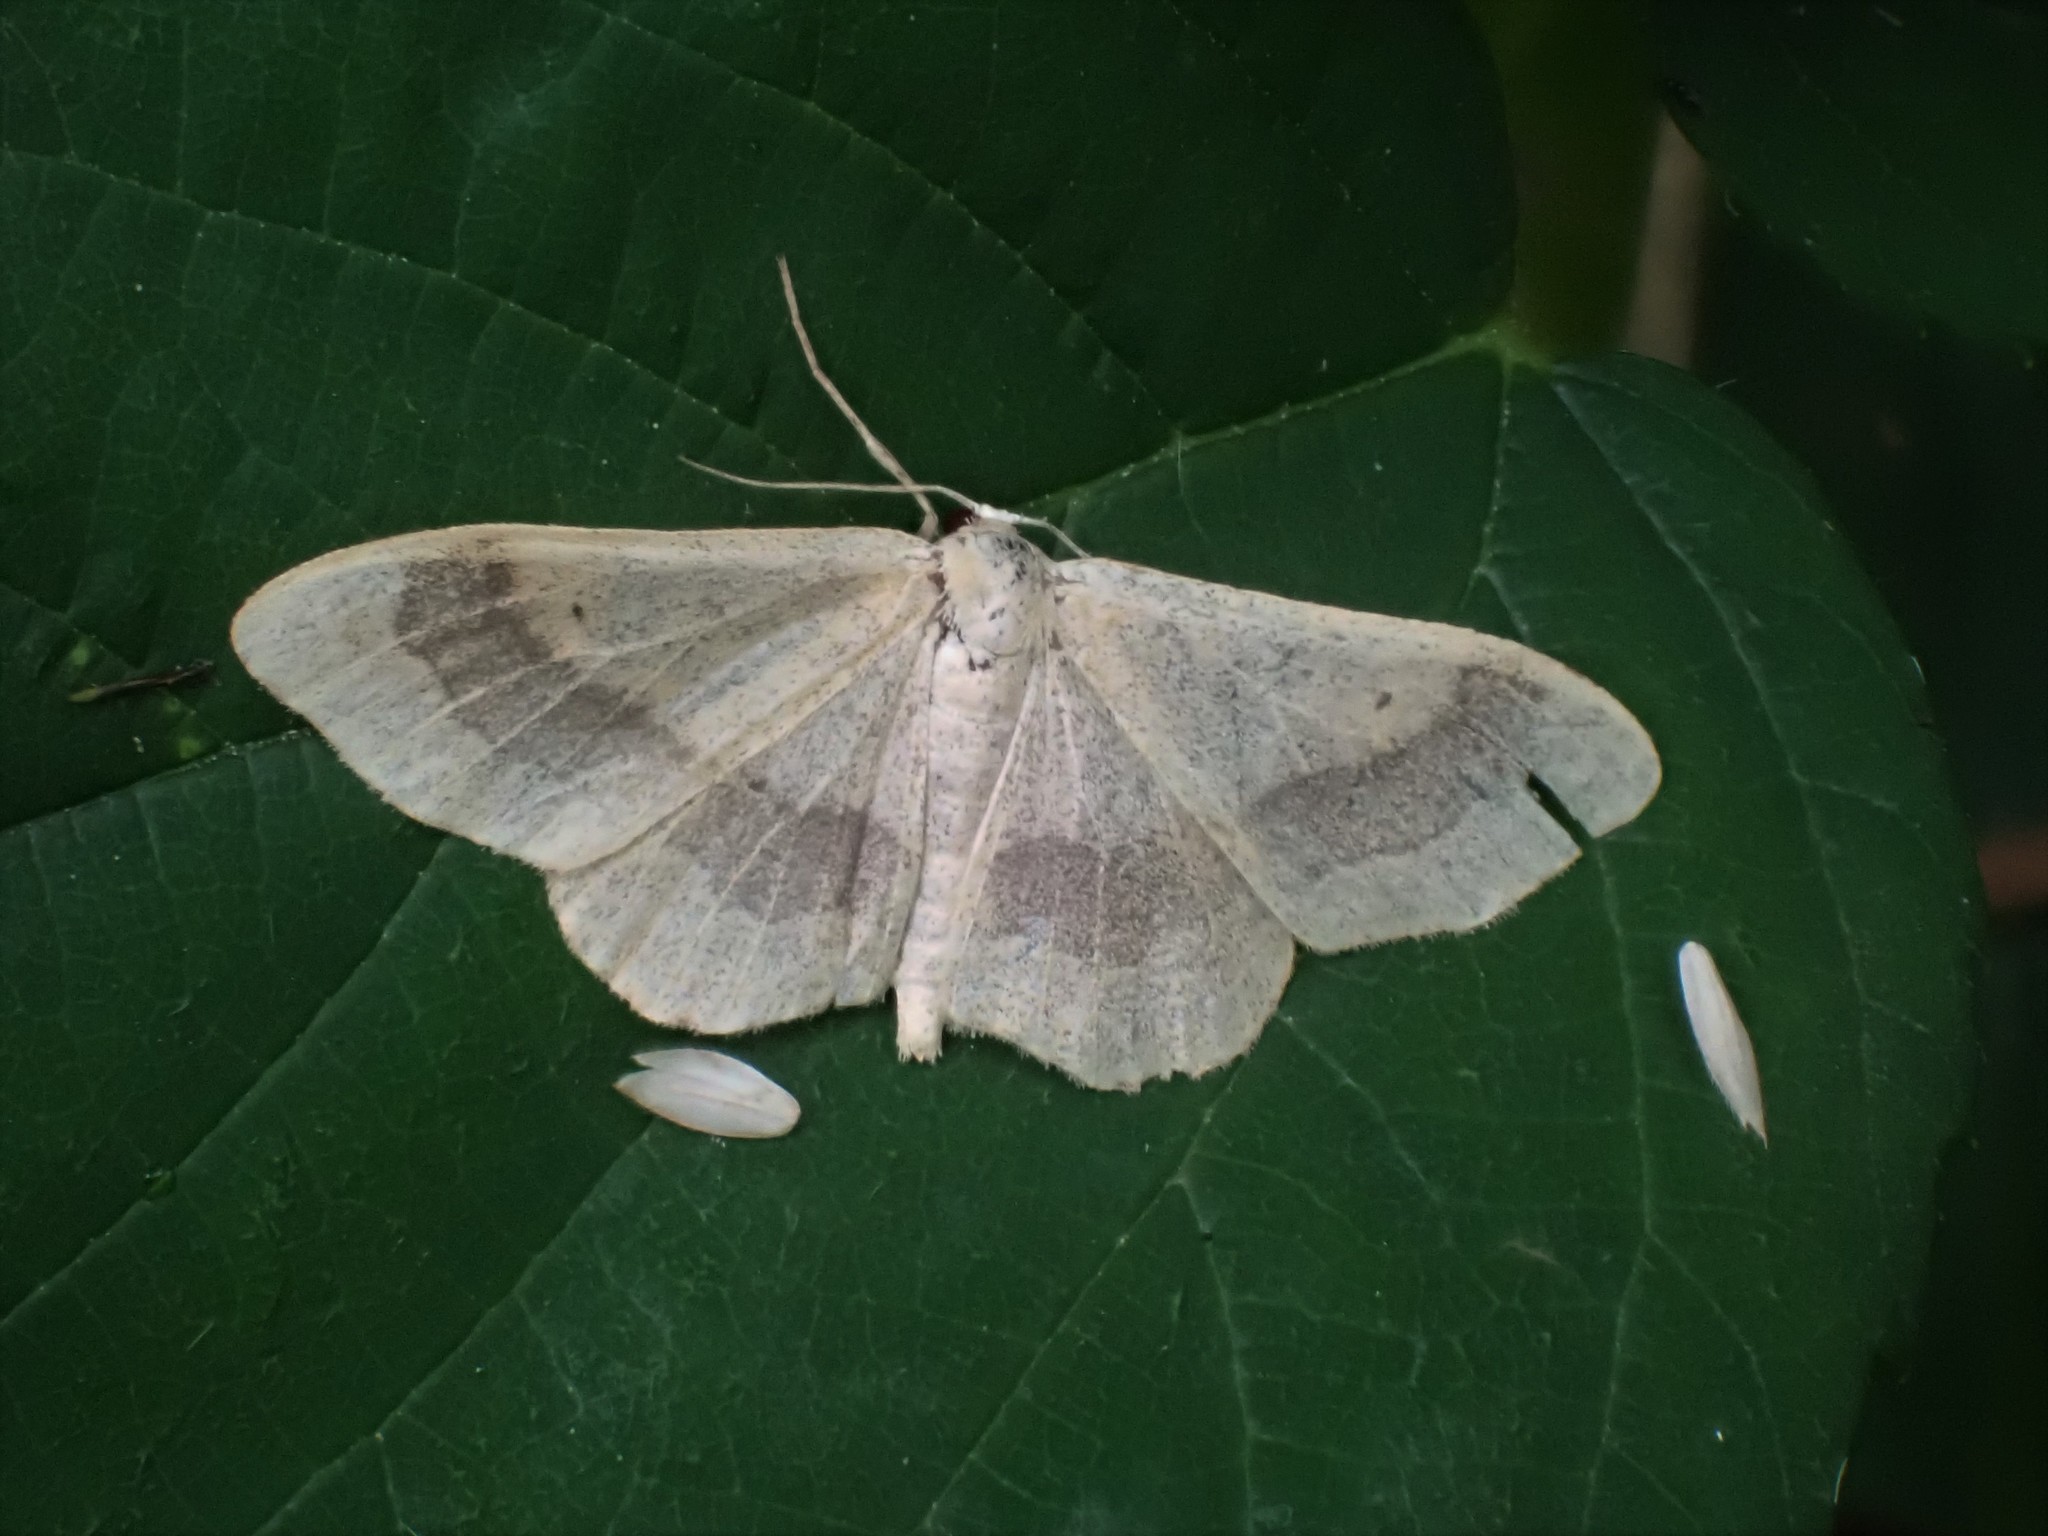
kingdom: Animalia
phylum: Arthropoda
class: Insecta
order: Lepidoptera
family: Geometridae
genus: Idaea
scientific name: Idaea aversata
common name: Riband wave
